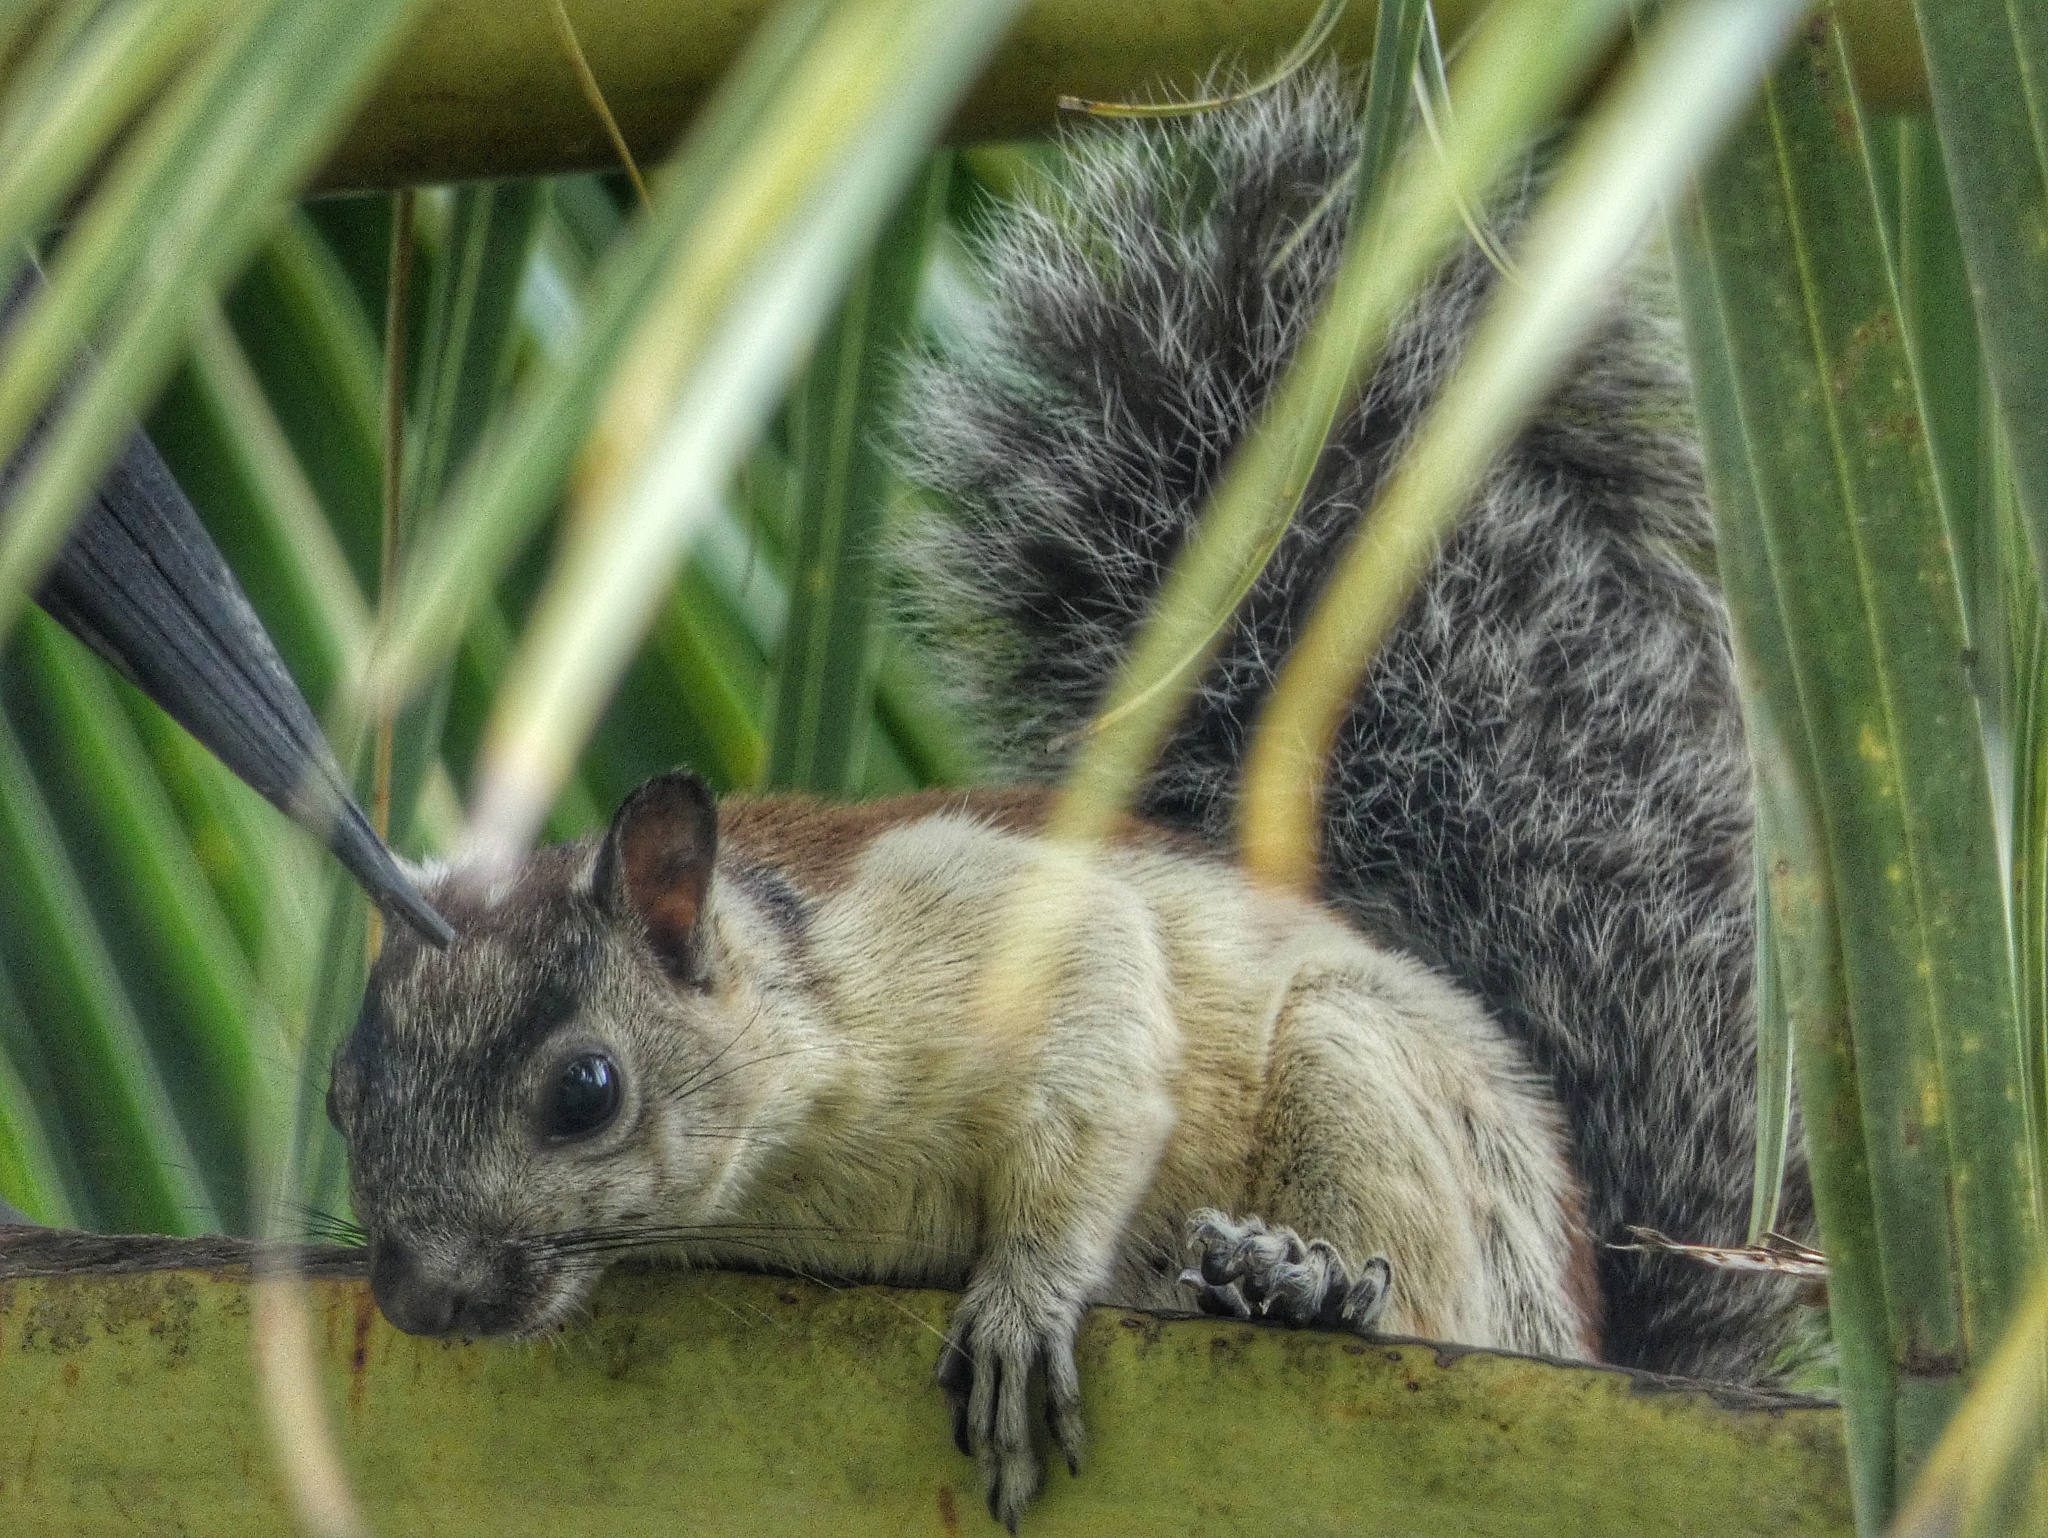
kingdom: Animalia
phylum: Chordata
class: Mammalia
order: Rodentia
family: Sciuridae
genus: Sciurus
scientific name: Sciurus variegatoides
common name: Variegated squirrel
